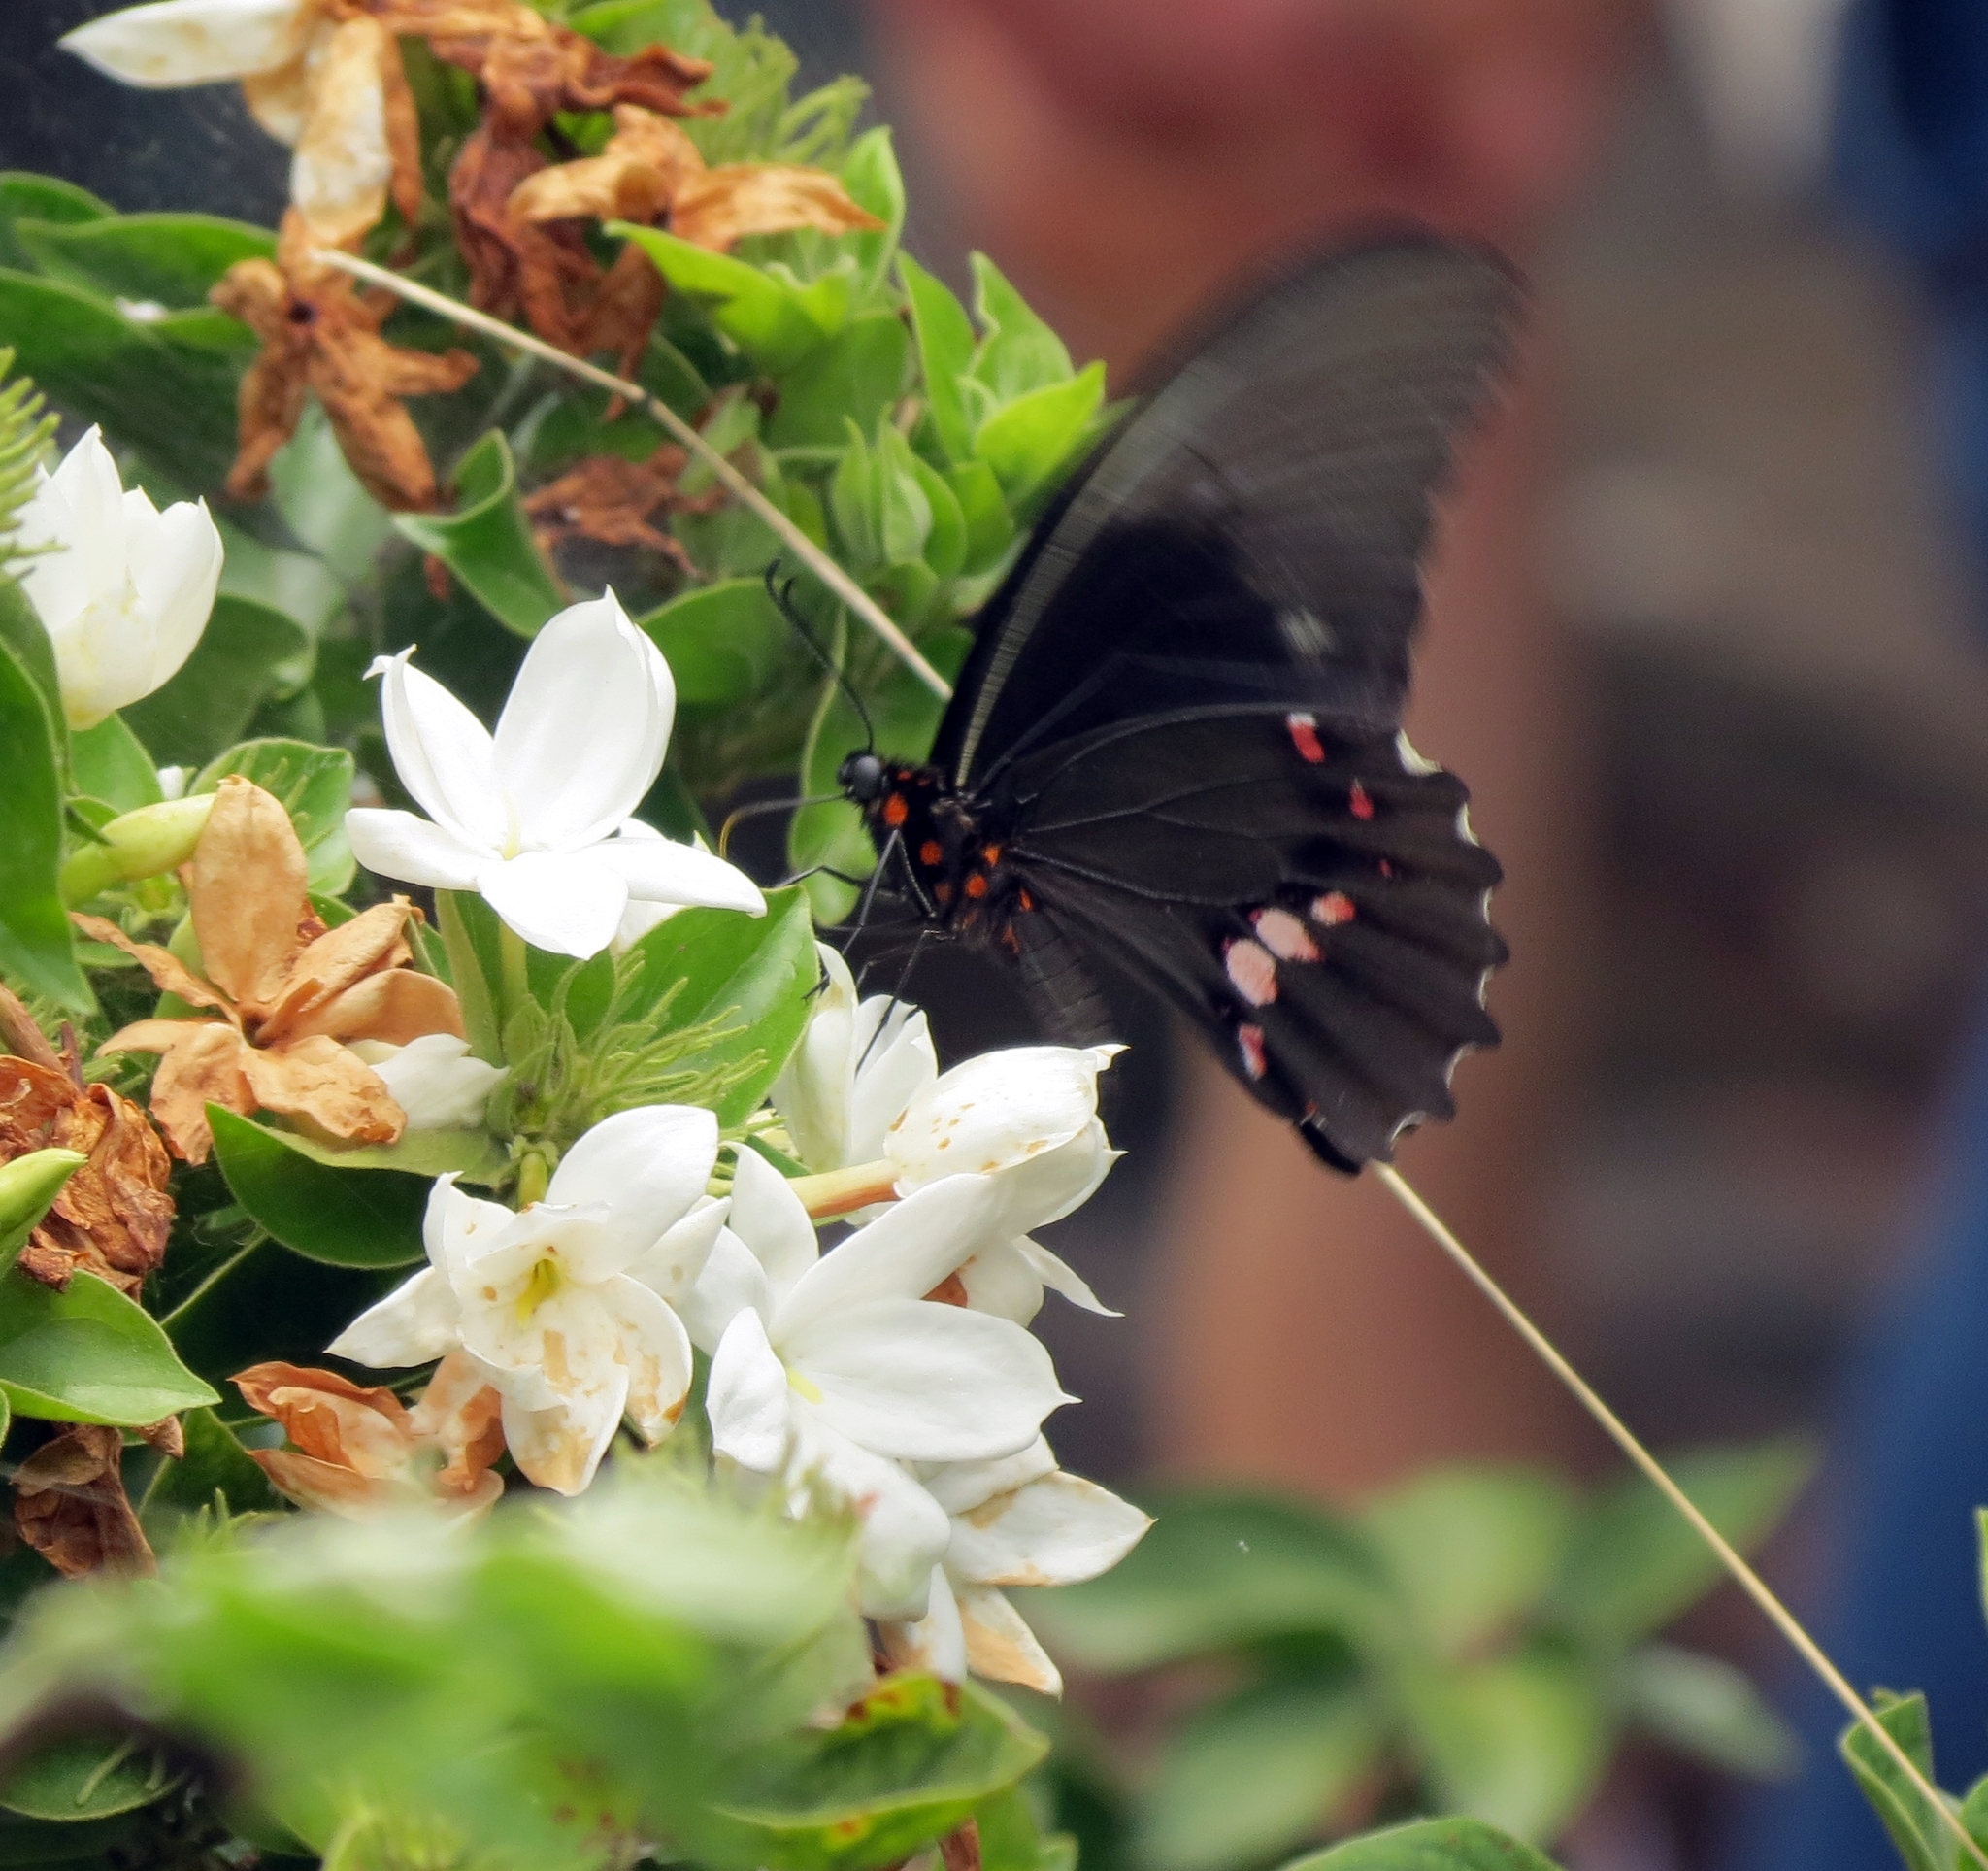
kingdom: Animalia
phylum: Arthropoda
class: Insecta
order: Lepidoptera
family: Papilionidae
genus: Papilio
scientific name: Papilio anchisiades
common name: Idaes swallowtail
